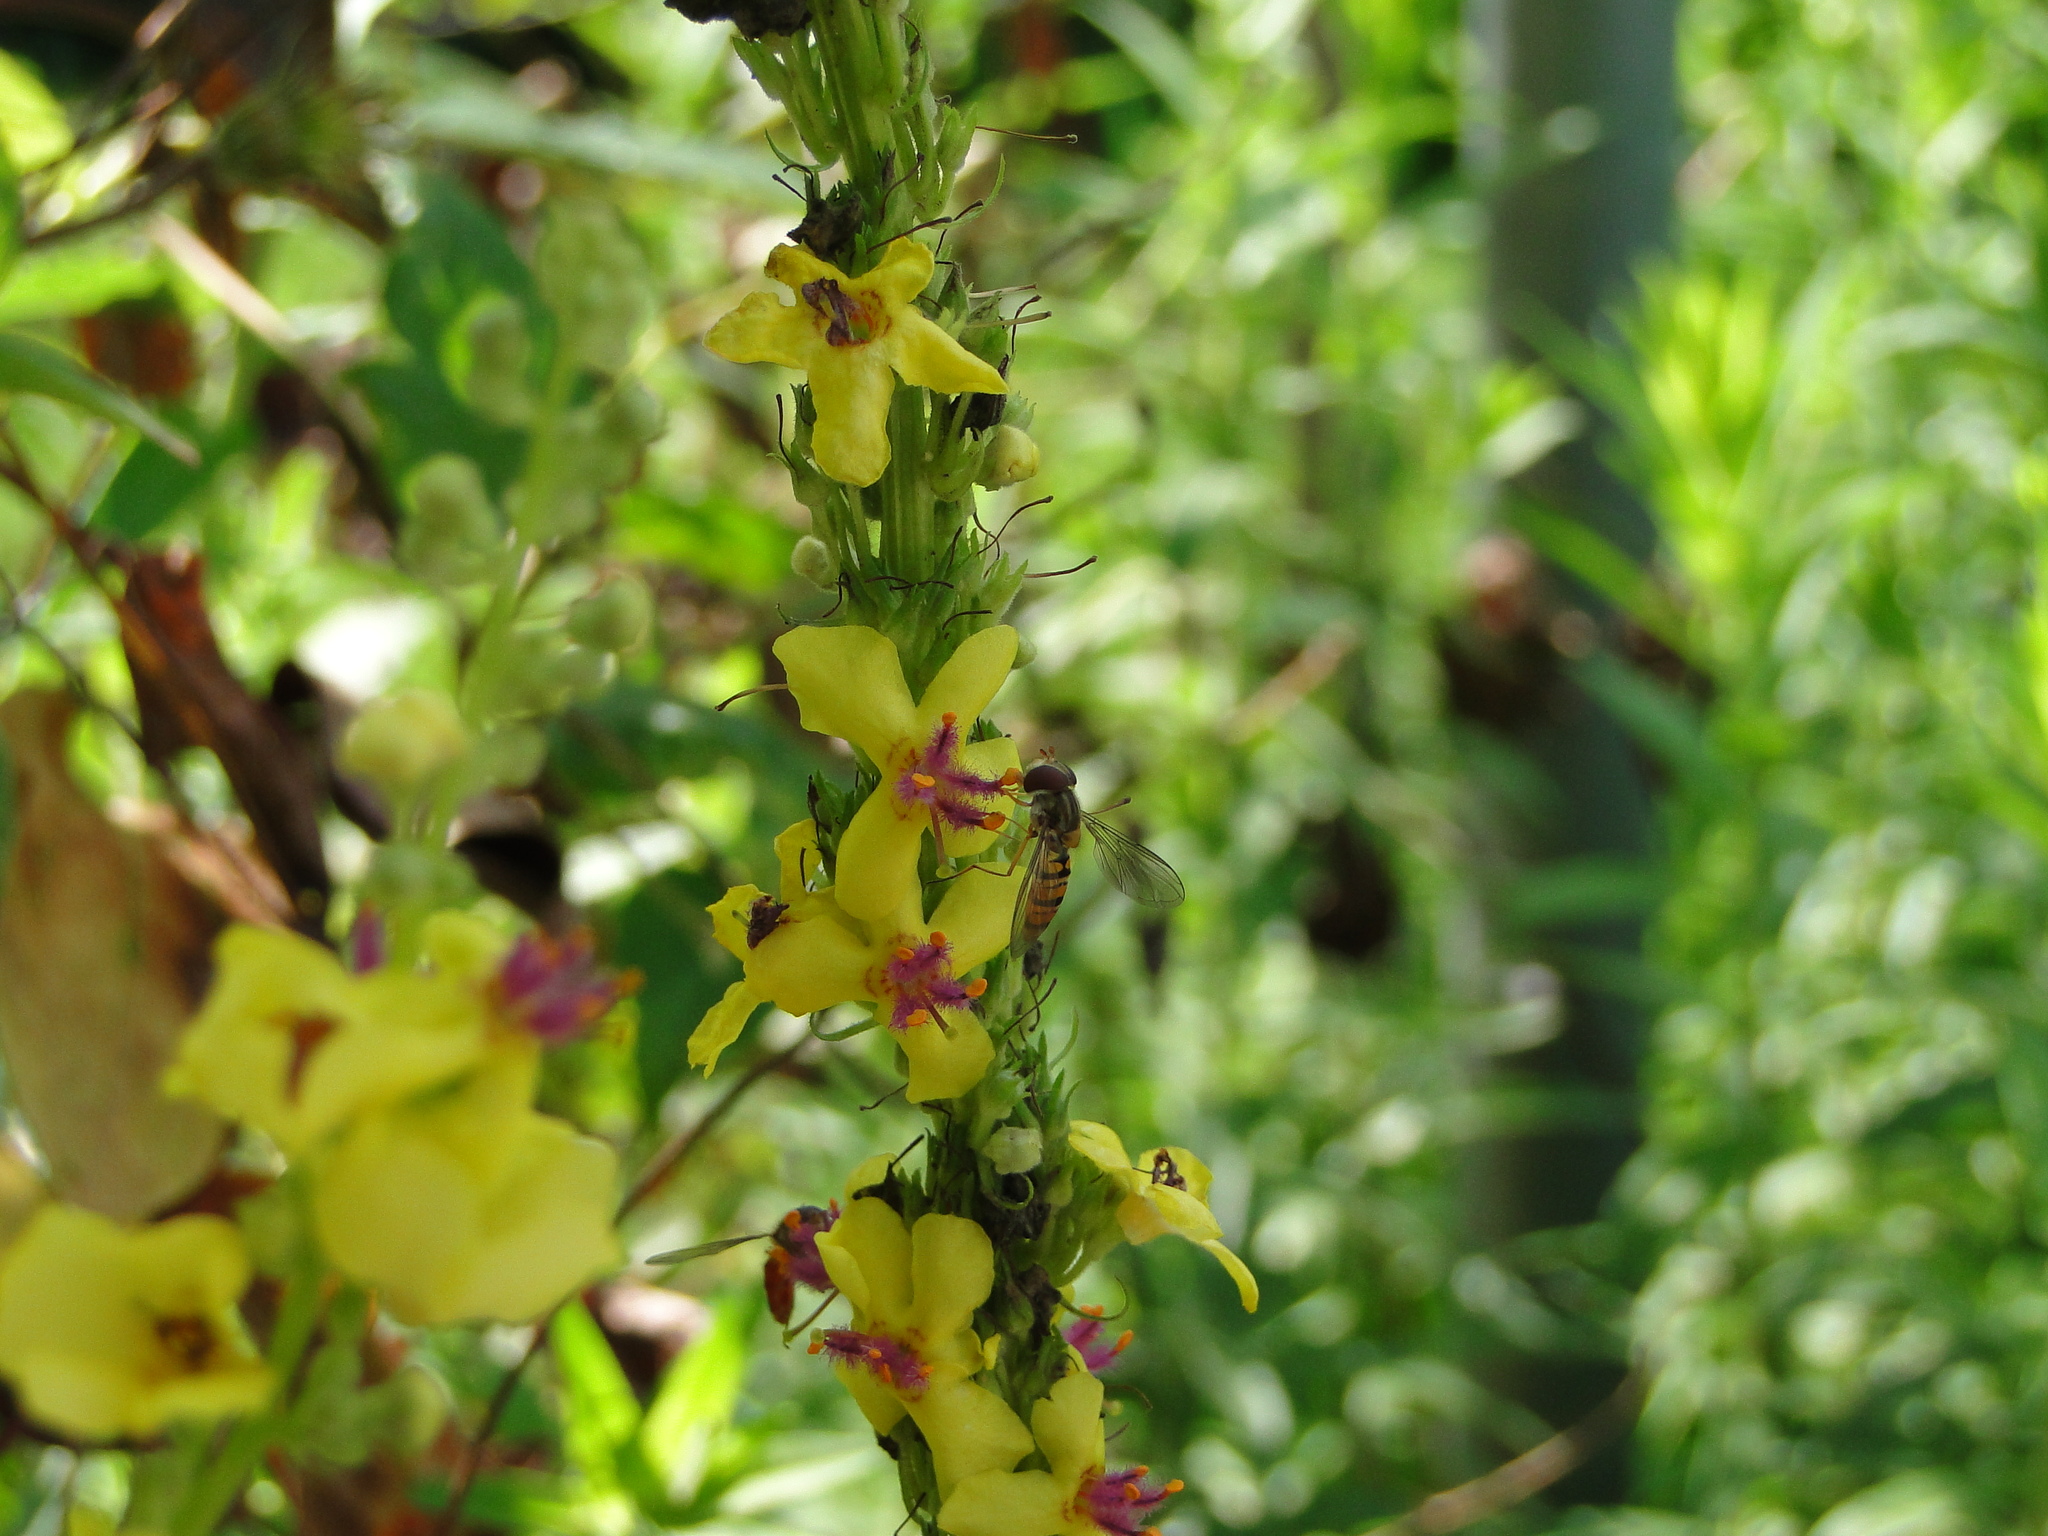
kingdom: Animalia
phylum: Arthropoda
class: Insecta
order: Diptera
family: Syrphidae
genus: Episyrphus
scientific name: Episyrphus balteatus
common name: Marmalade hoverfly
